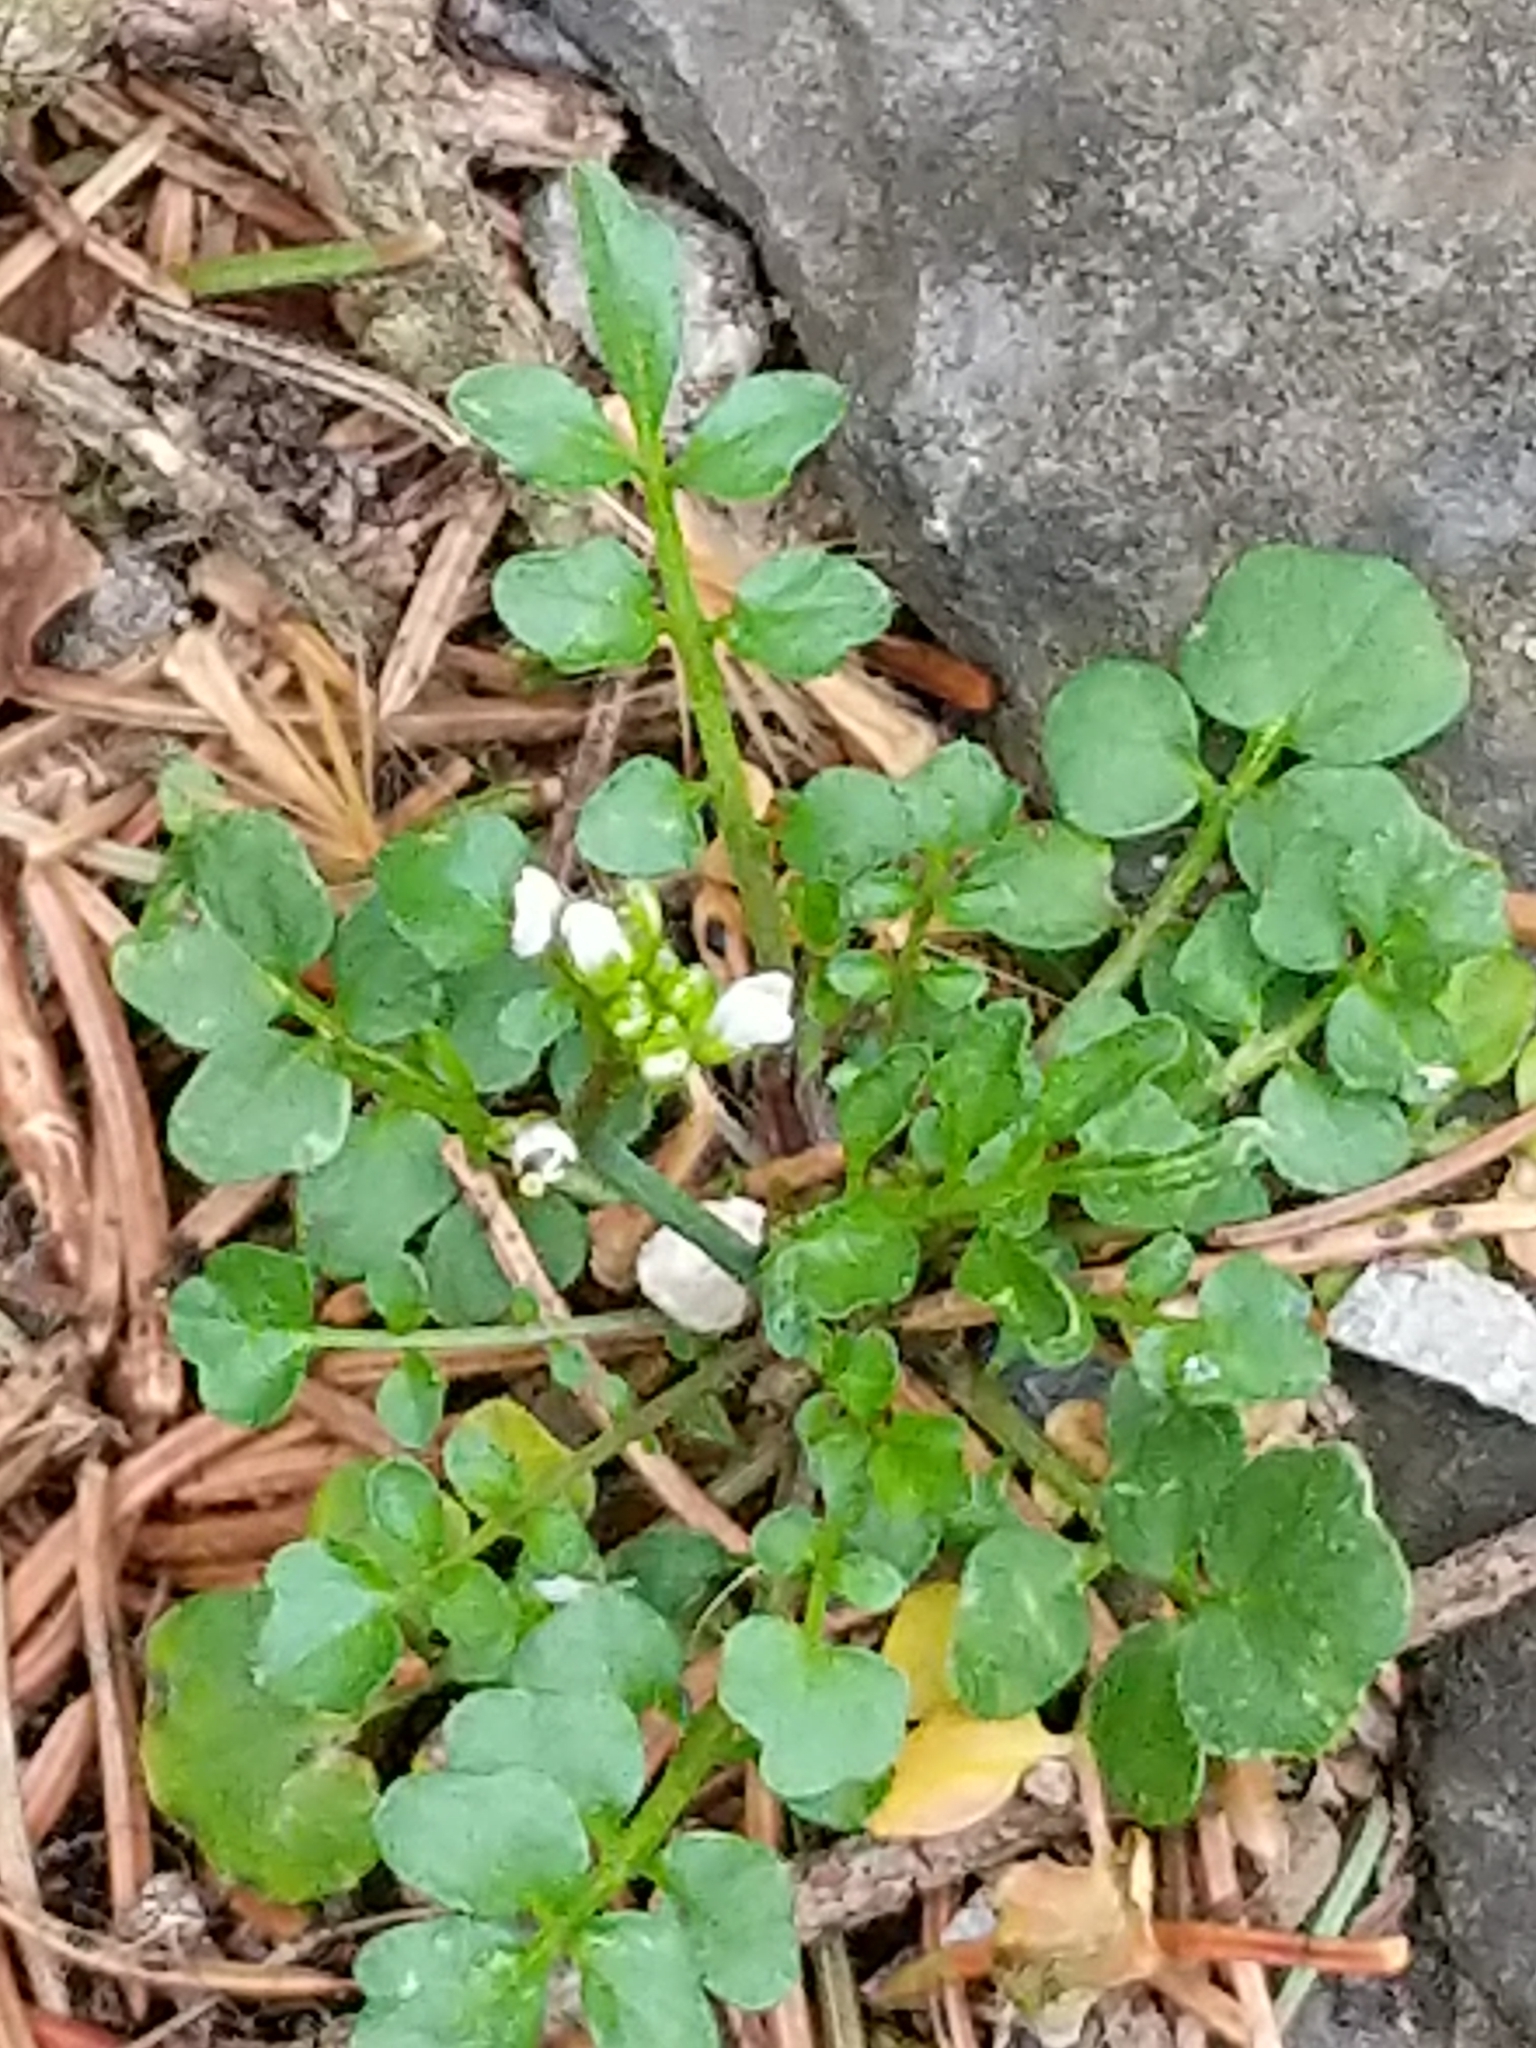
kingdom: Plantae
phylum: Tracheophyta
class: Magnoliopsida
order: Brassicales
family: Brassicaceae
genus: Cardamine
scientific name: Cardamine hirsuta
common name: Hairy bittercress
